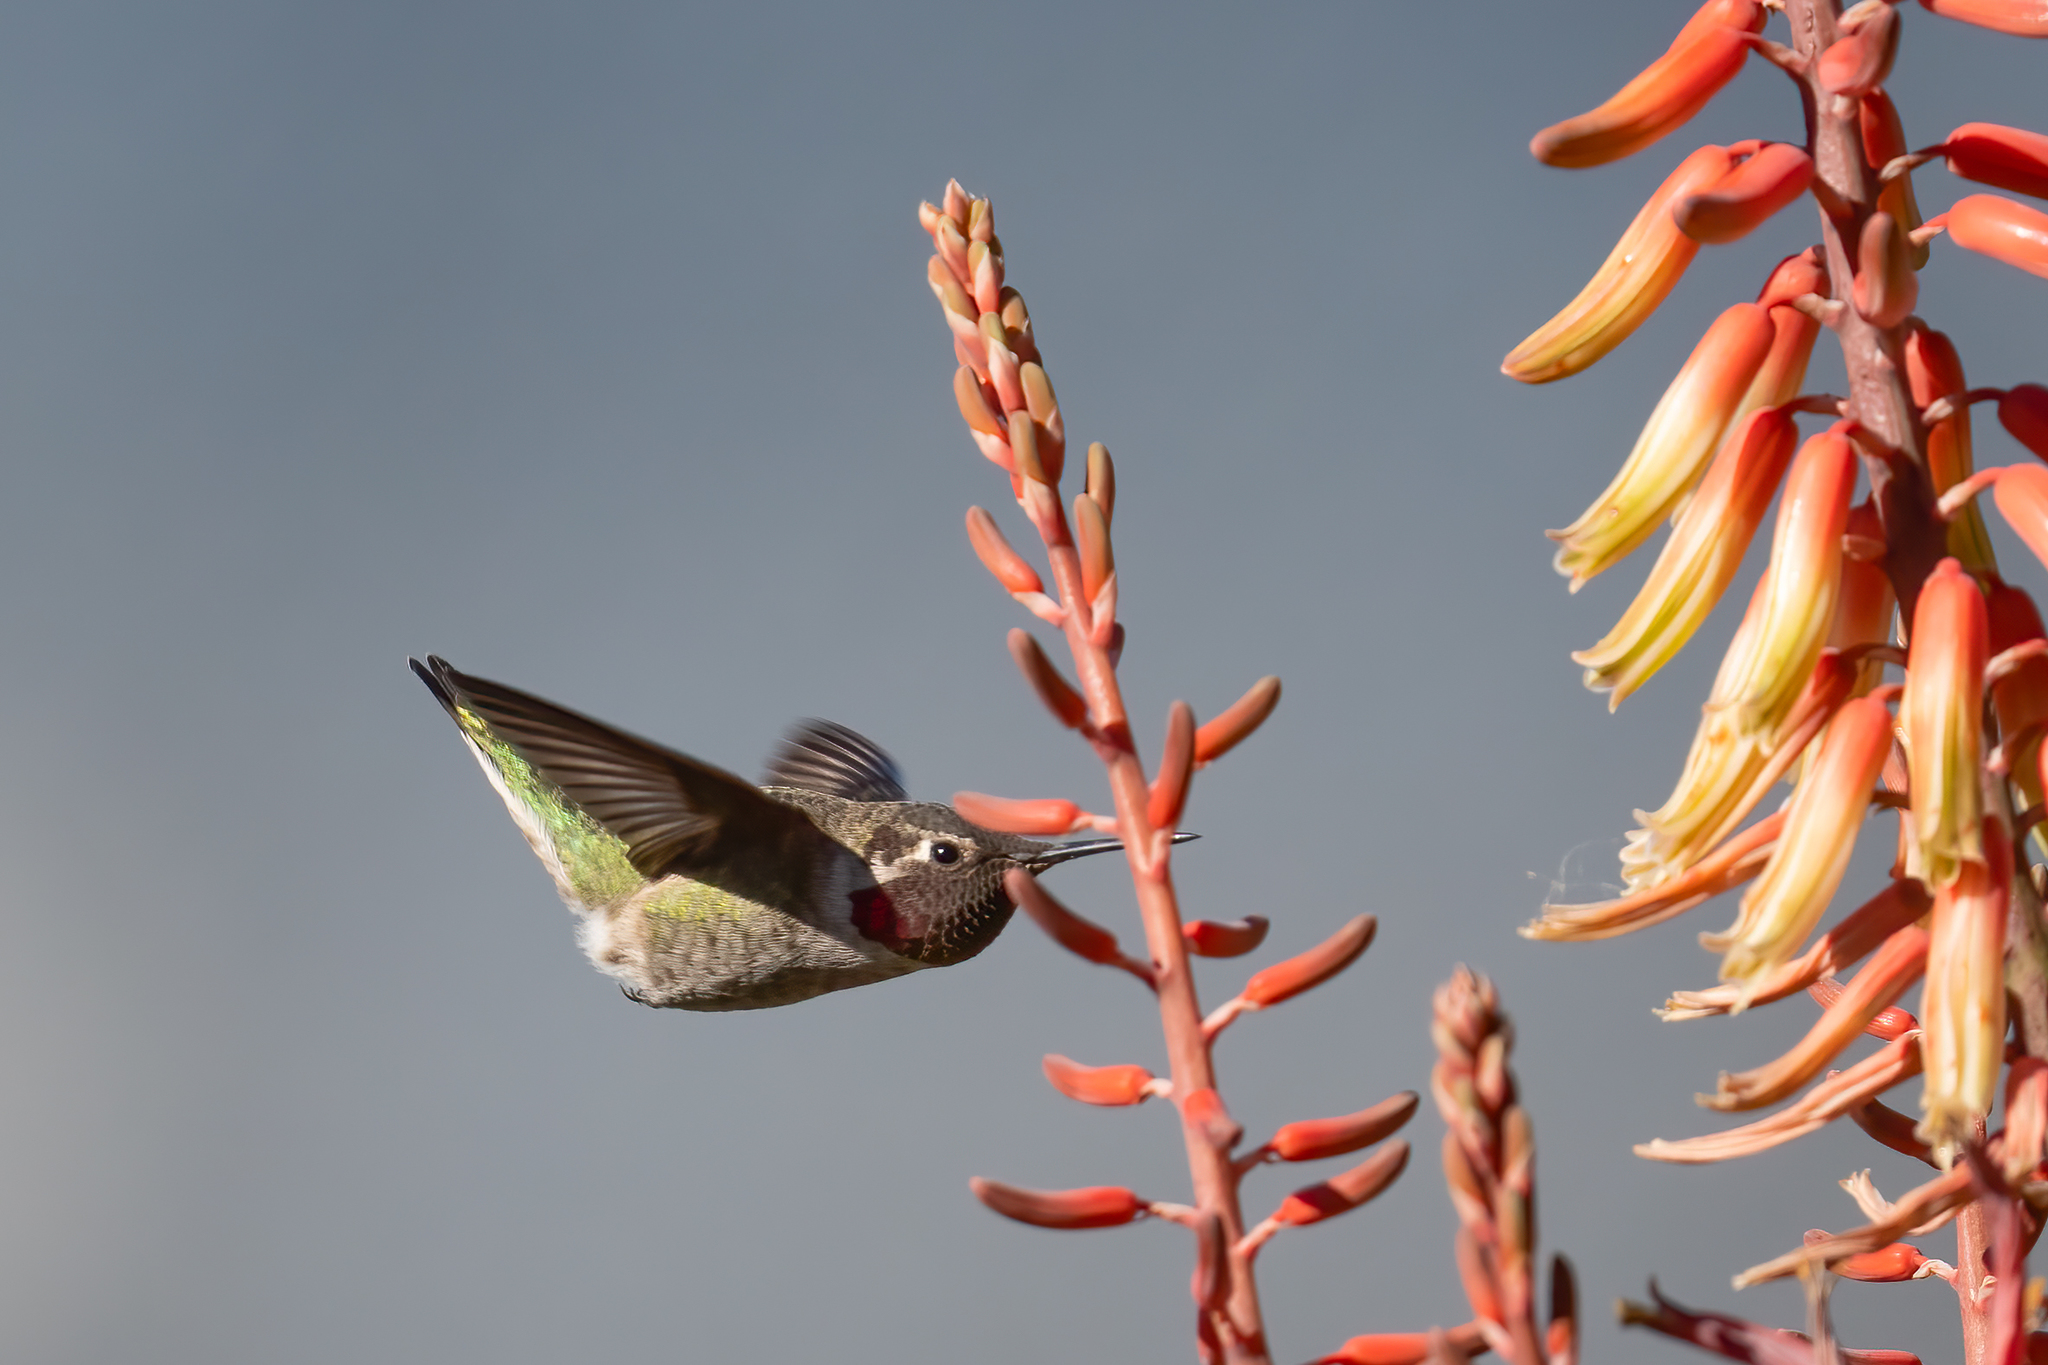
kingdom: Animalia
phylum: Chordata
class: Aves
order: Apodiformes
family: Trochilidae
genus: Calypte
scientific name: Calypte anna
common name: Anna's hummingbird
